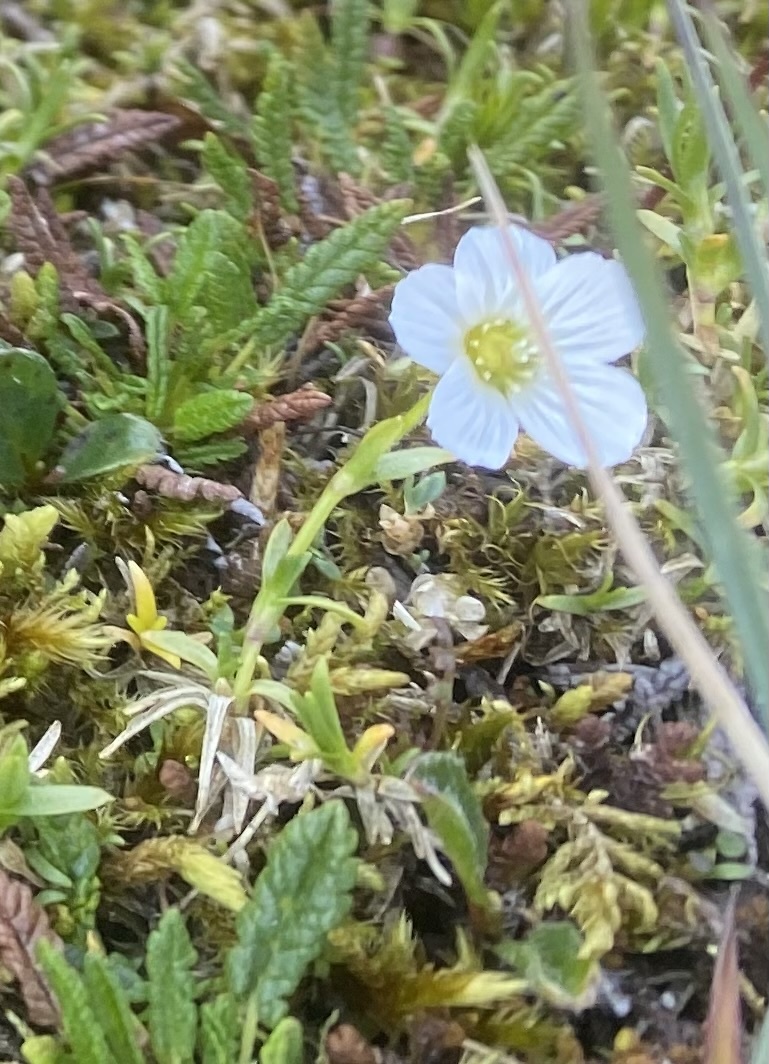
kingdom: Plantae
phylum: Tracheophyta
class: Magnoliopsida
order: Caryophyllales
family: Caryophyllaceae
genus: Cherleria
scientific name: Cherleria arctica
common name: Arctic sandwort
